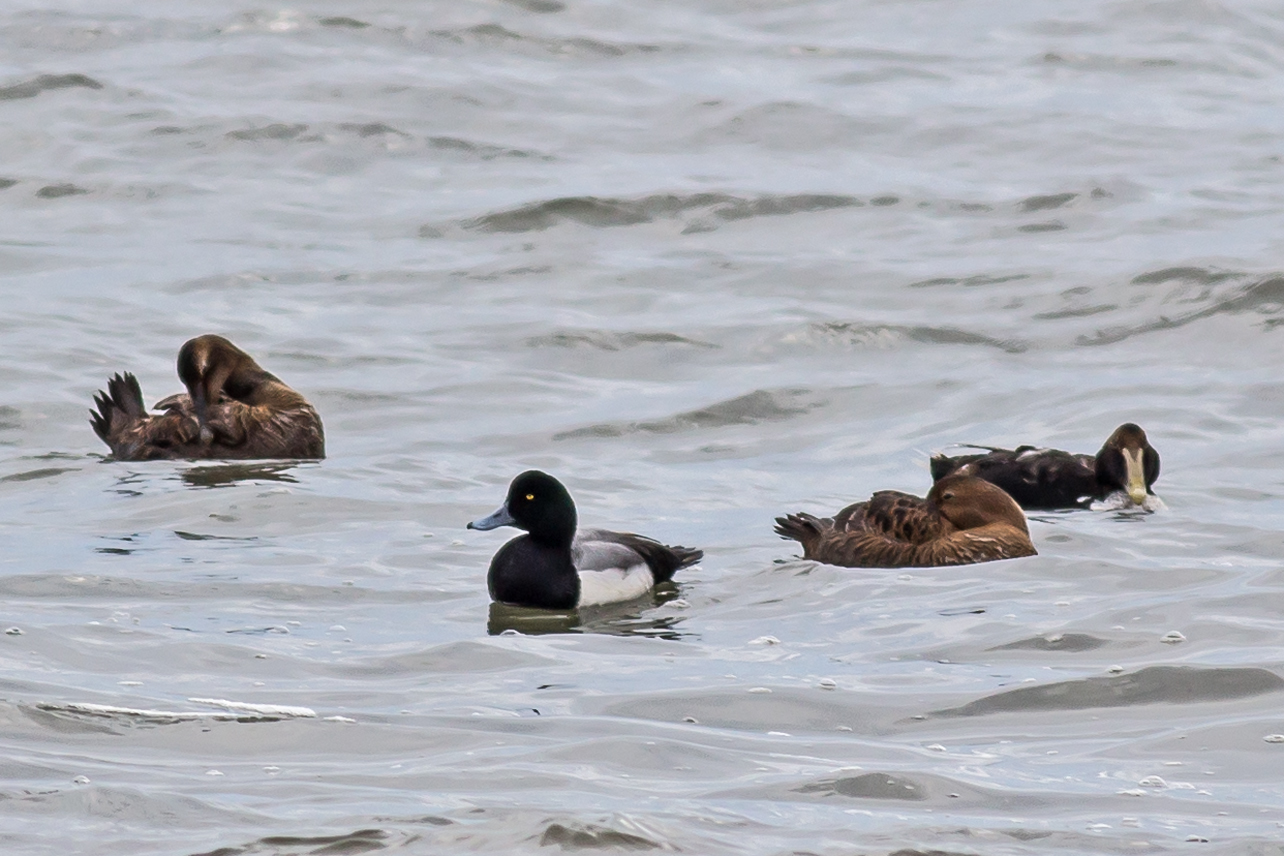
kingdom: Animalia
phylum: Chordata
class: Aves
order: Anseriformes
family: Anatidae
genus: Aythya
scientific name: Aythya marila
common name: Greater scaup
